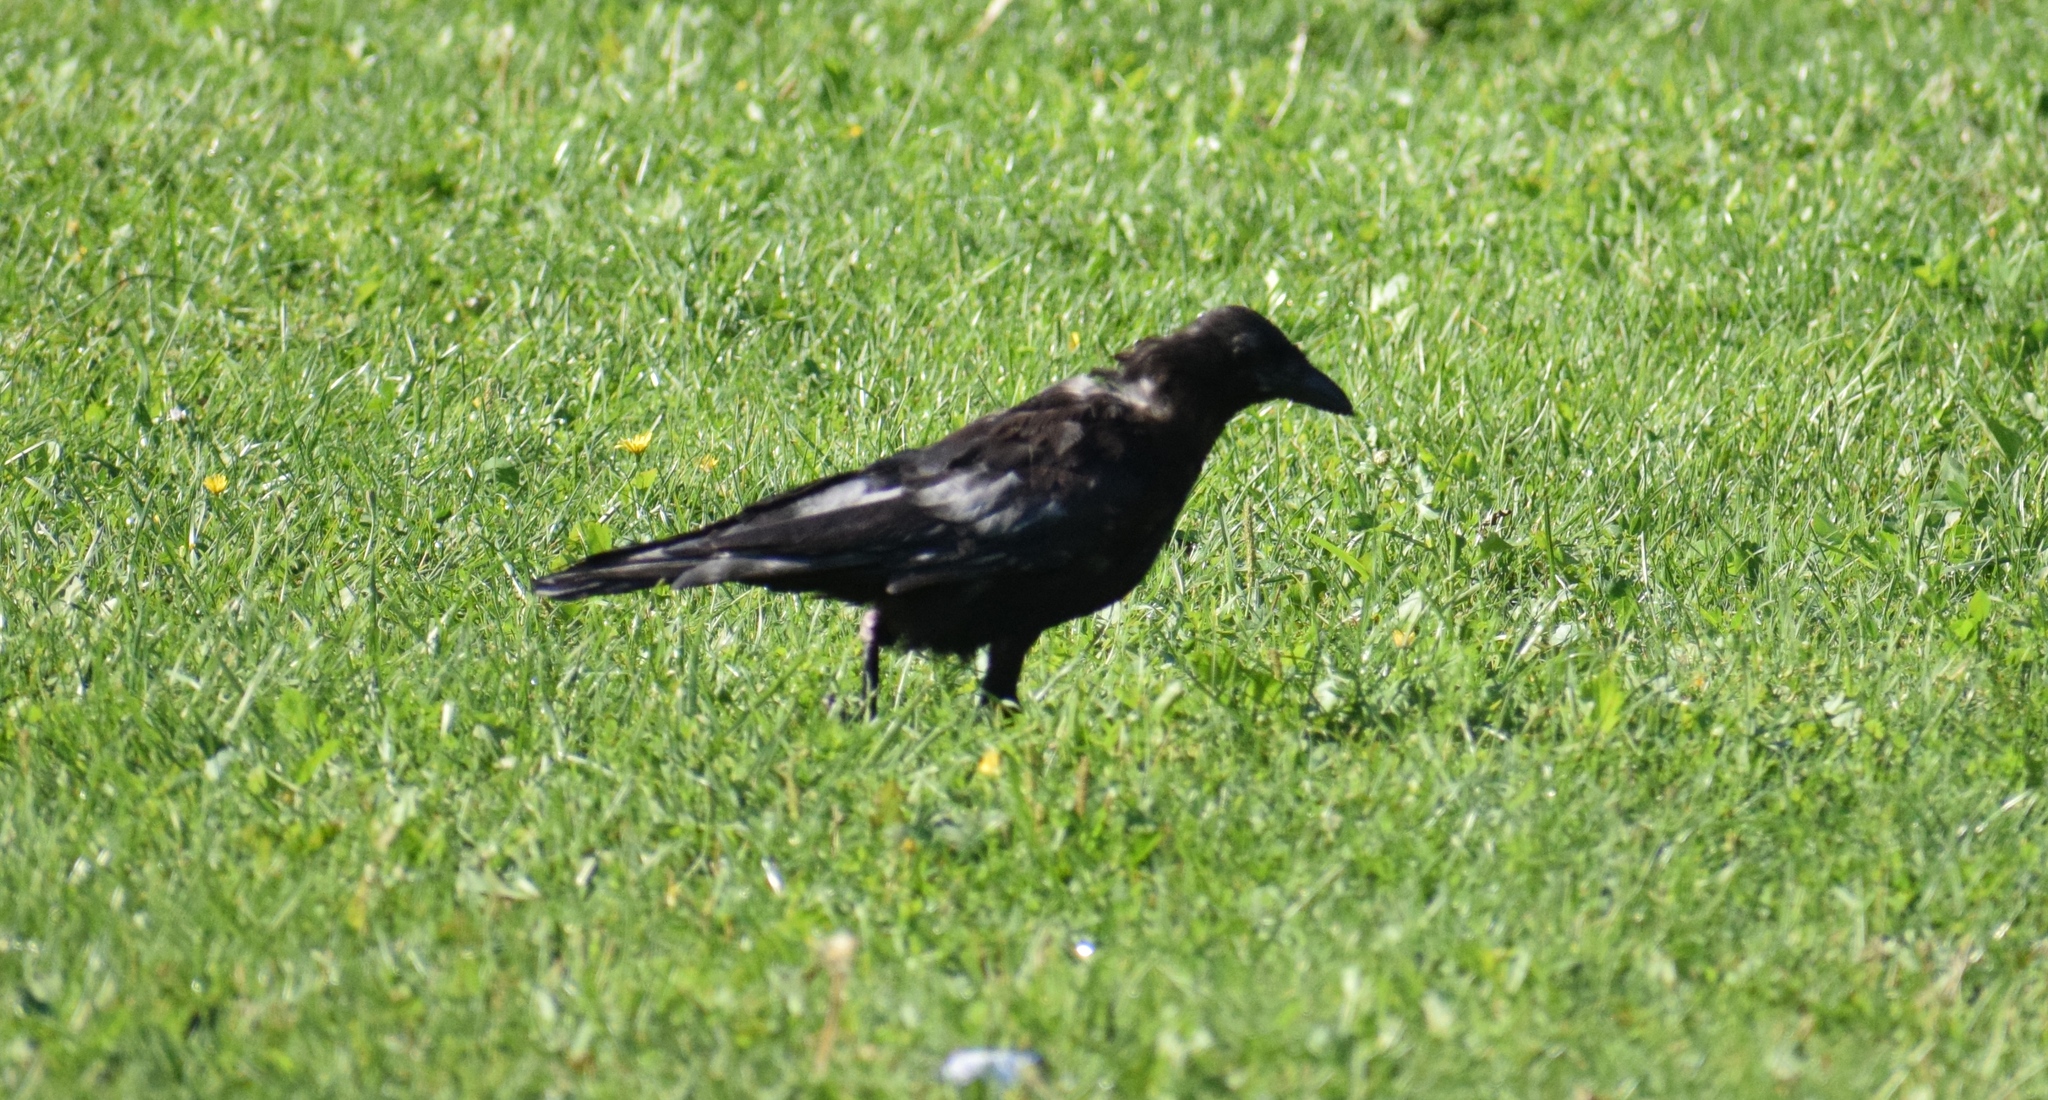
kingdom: Animalia
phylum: Chordata
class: Aves
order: Passeriformes
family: Corvidae
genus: Corvus
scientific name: Corvus corone
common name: Carrion crow
